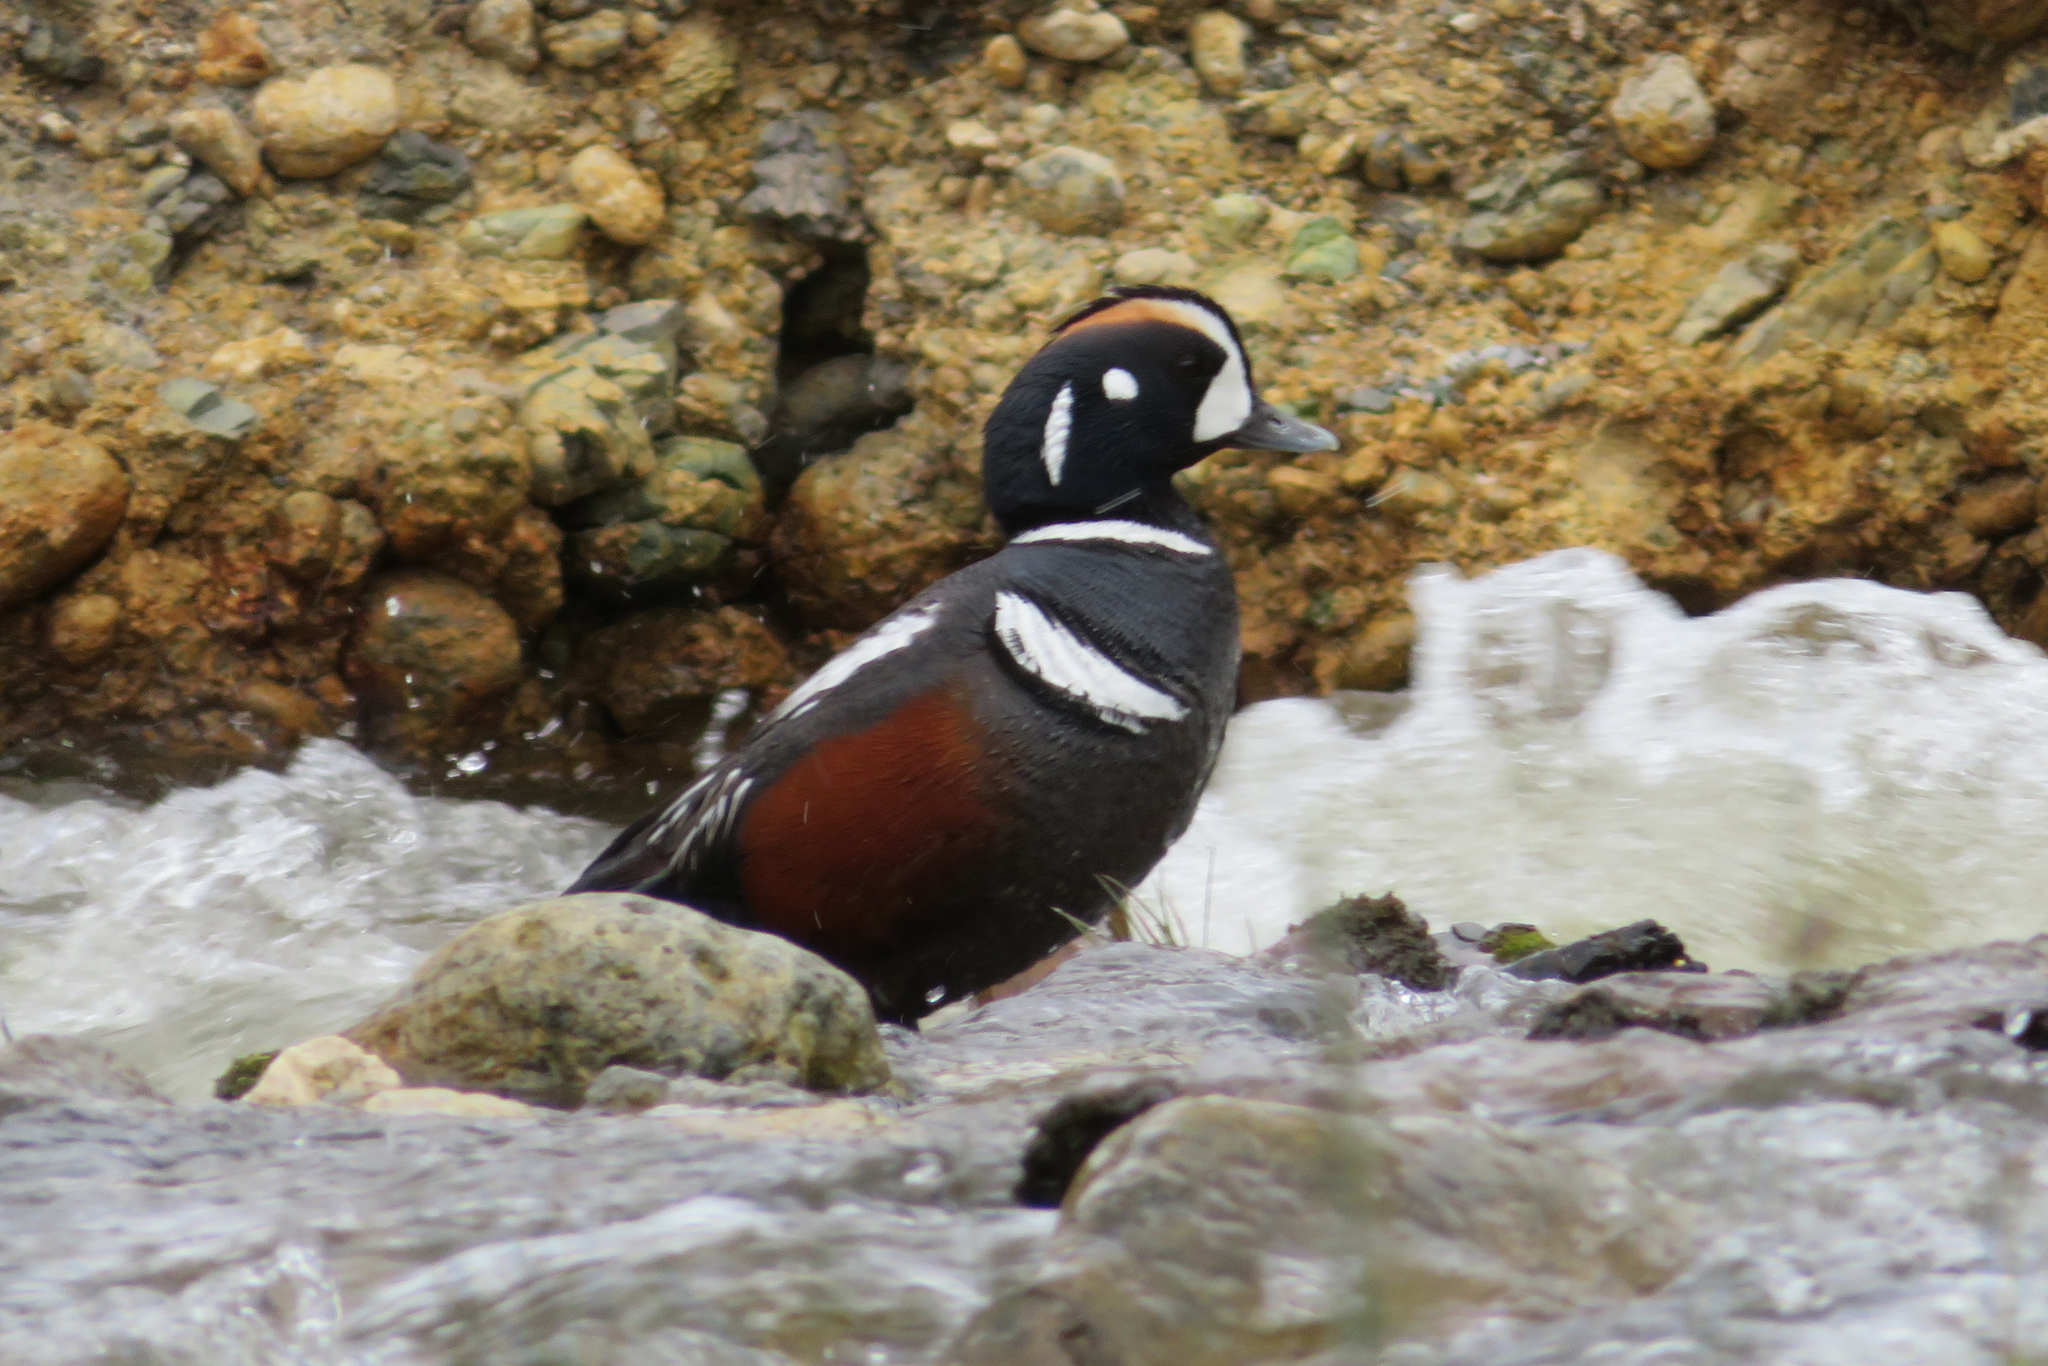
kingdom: Animalia
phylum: Chordata
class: Aves
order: Anseriformes
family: Anatidae
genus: Histrionicus
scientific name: Histrionicus histrionicus
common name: Harlequin duck
